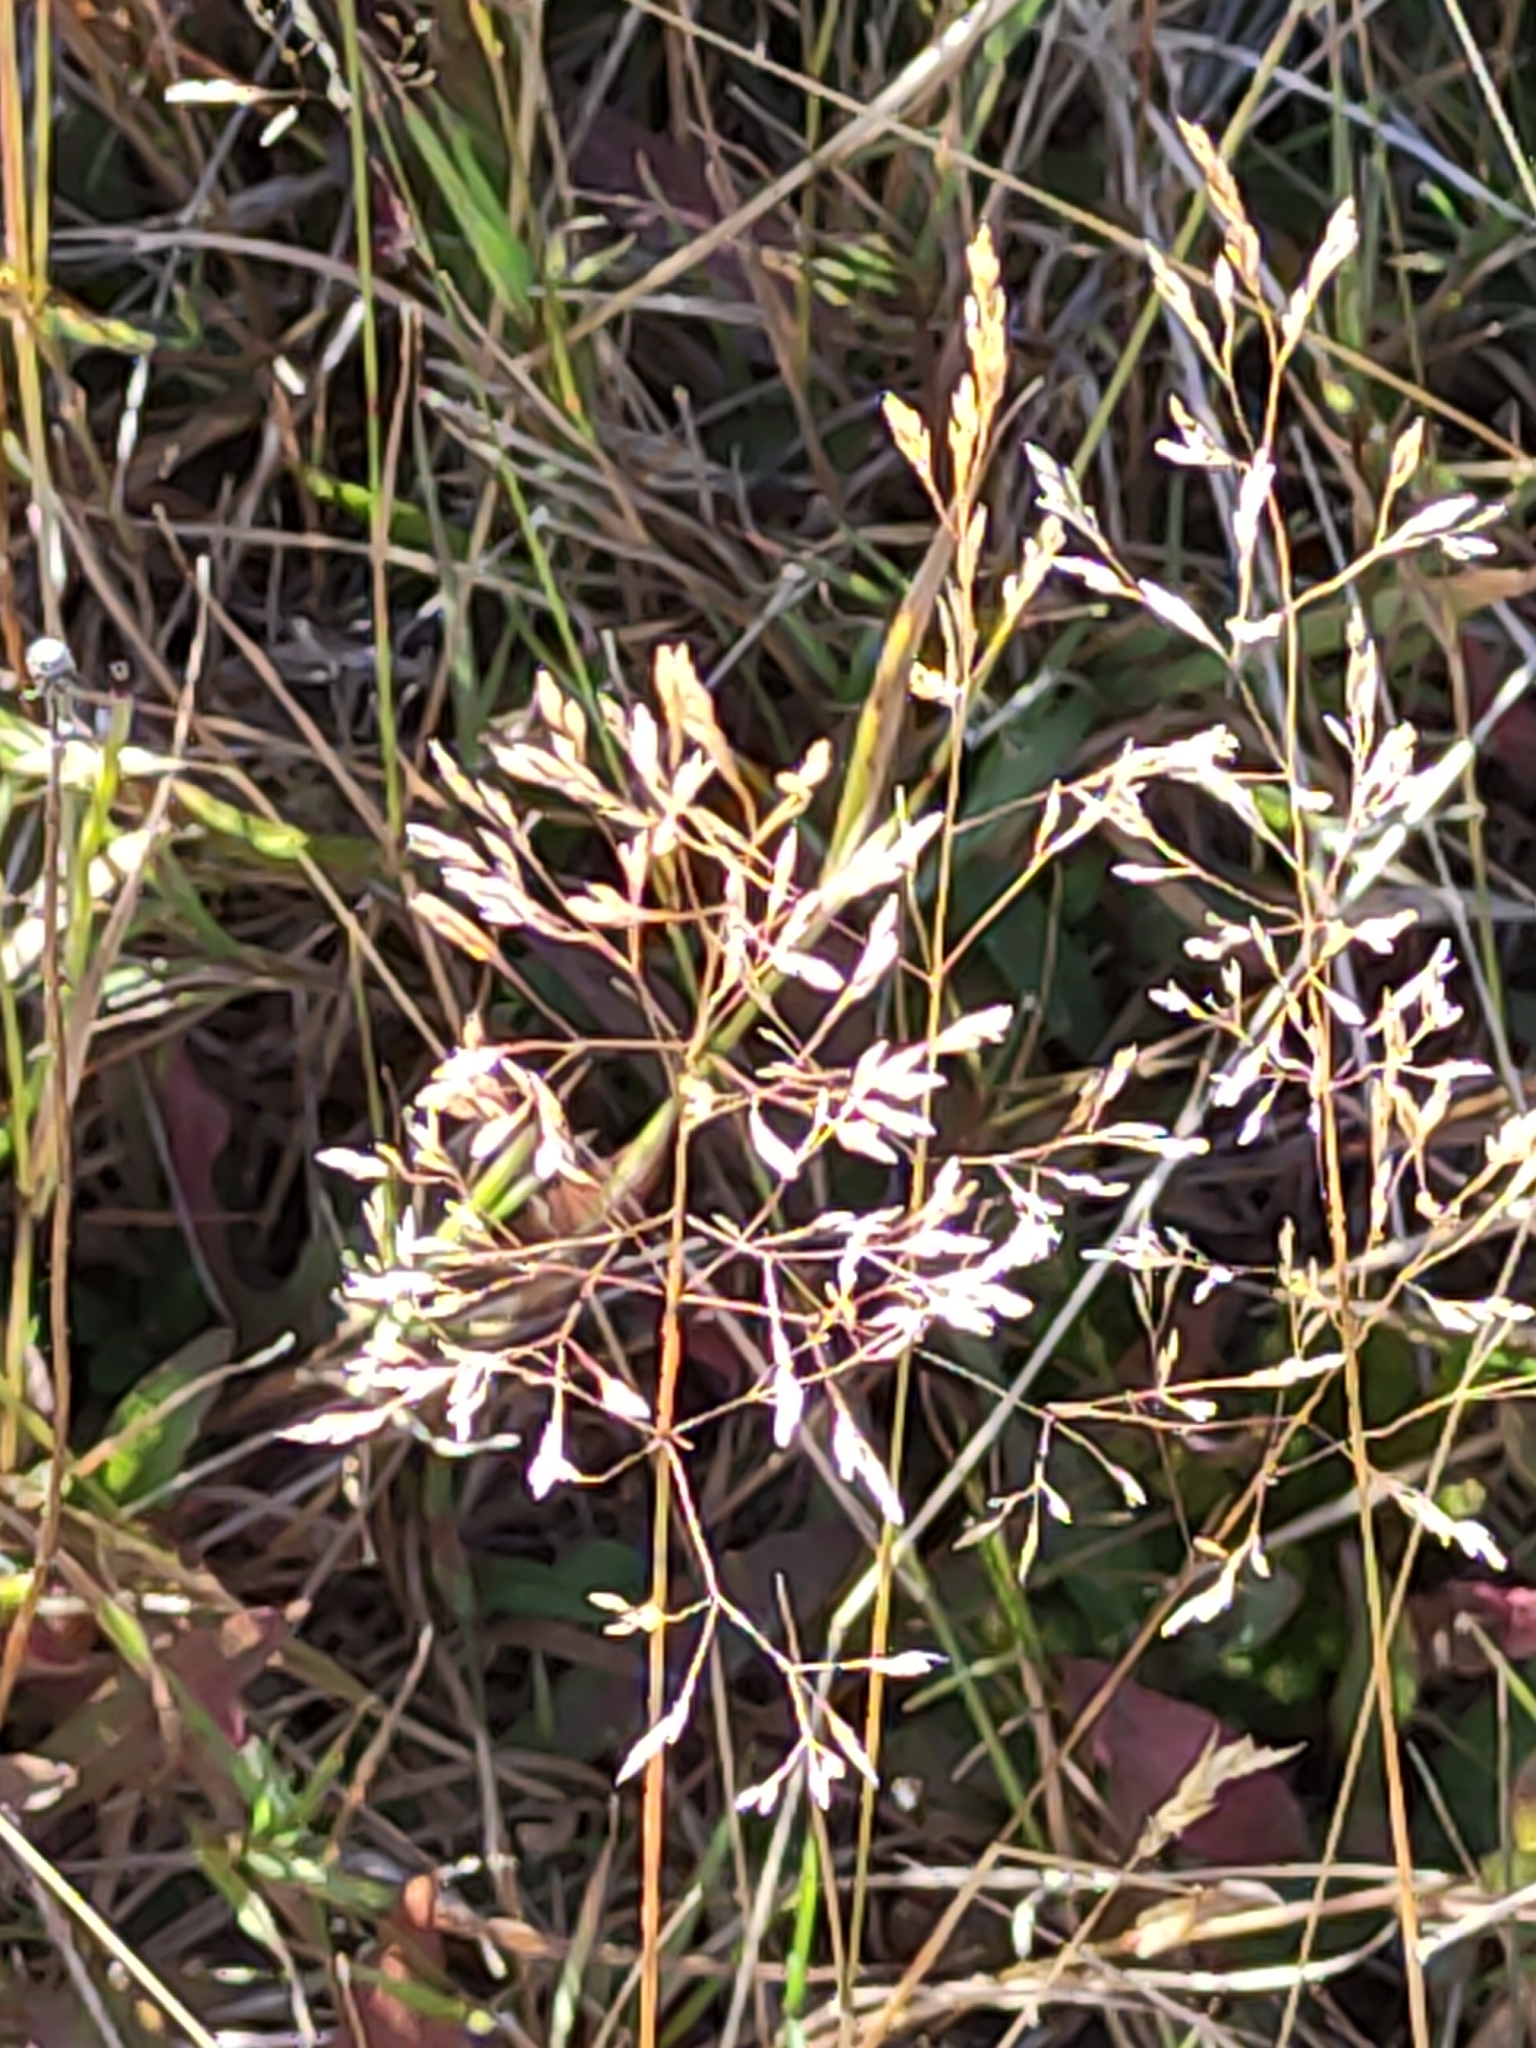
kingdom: Plantae
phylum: Tracheophyta
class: Liliopsida
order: Poales
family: Poaceae
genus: Agrostis
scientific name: Agrostis capillaris
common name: Colonial bentgrass
